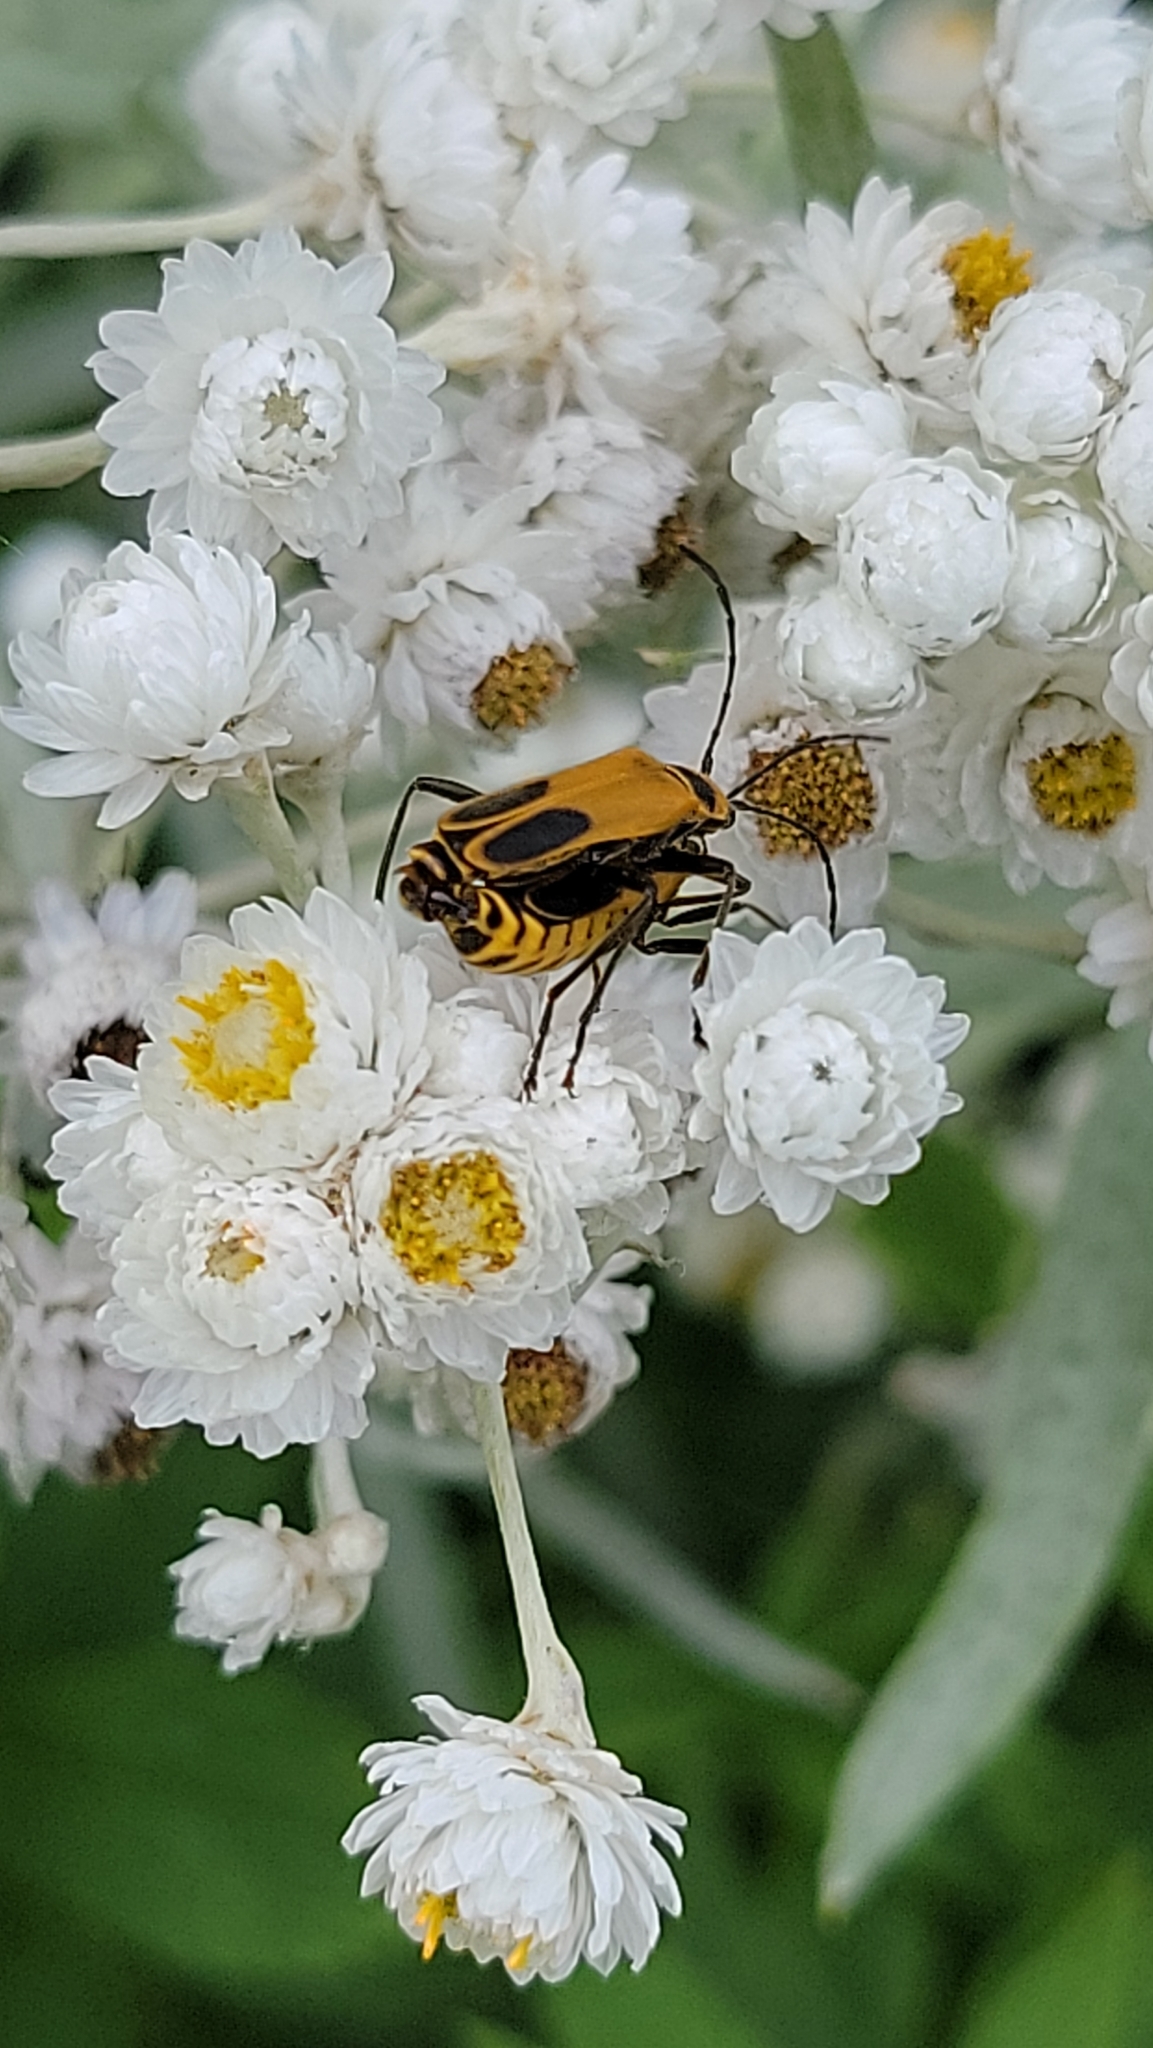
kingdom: Animalia
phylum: Arthropoda
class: Insecta
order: Coleoptera
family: Cantharidae
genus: Chauliognathus
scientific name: Chauliognathus pensylvanicus
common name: Goldenrod soldier beetle
